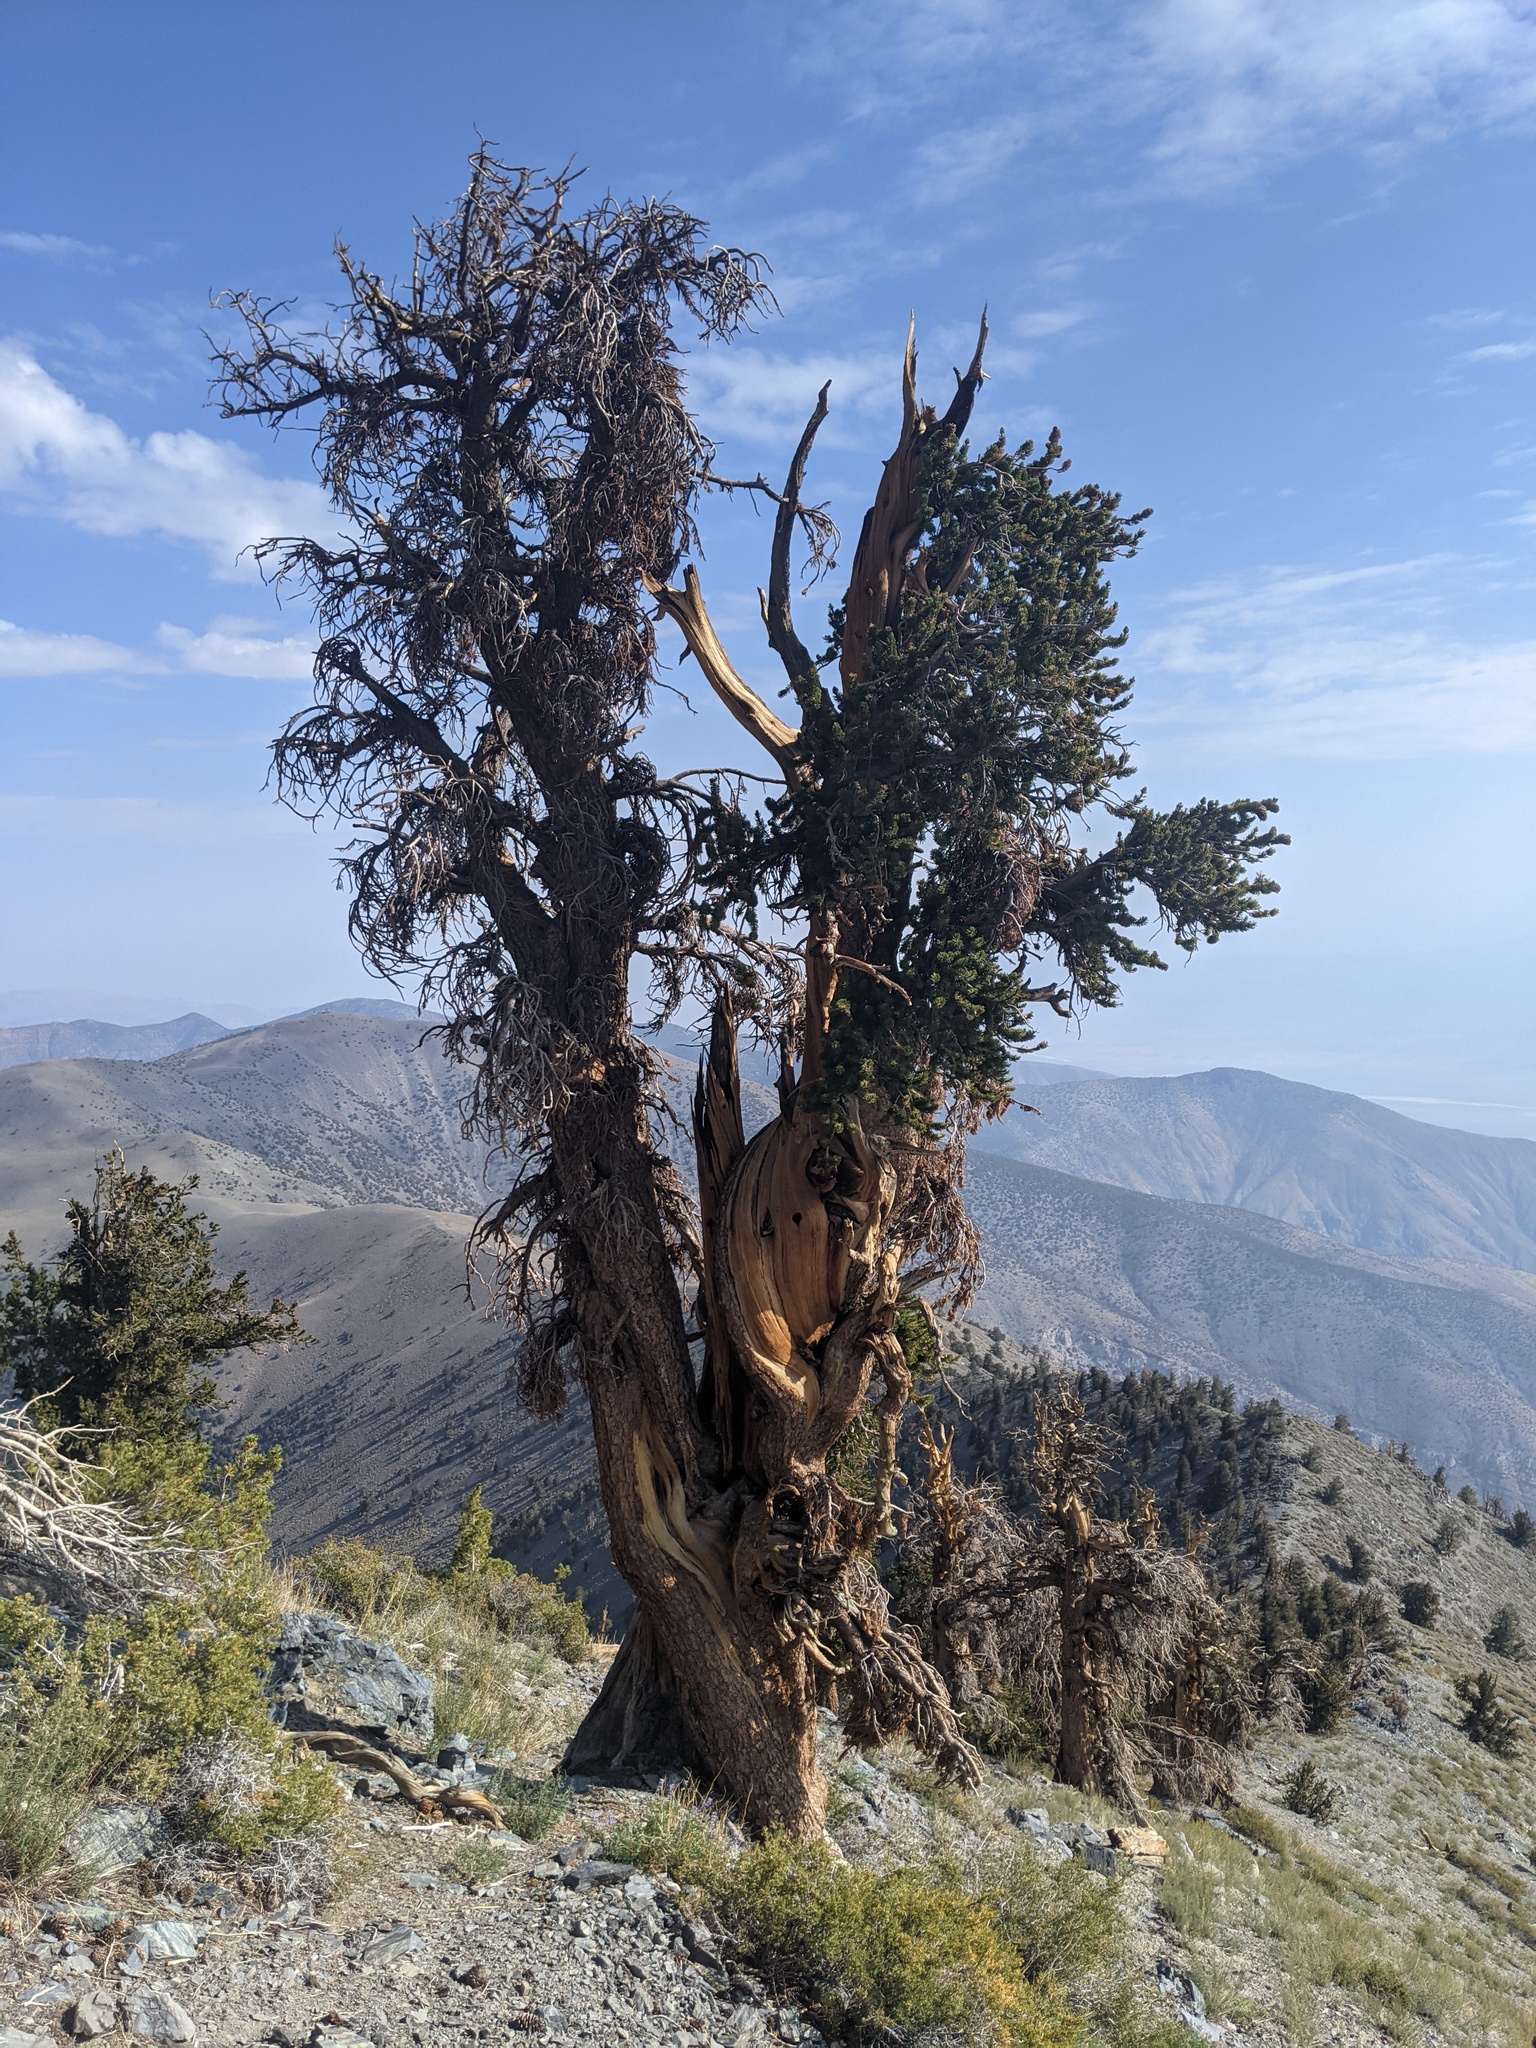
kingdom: Plantae
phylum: Tracheophyta
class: Pinopsida
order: Pinales
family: Pinaceae
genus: Pinus
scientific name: Pinus longaeva
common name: Intermountain bristlecone pine
